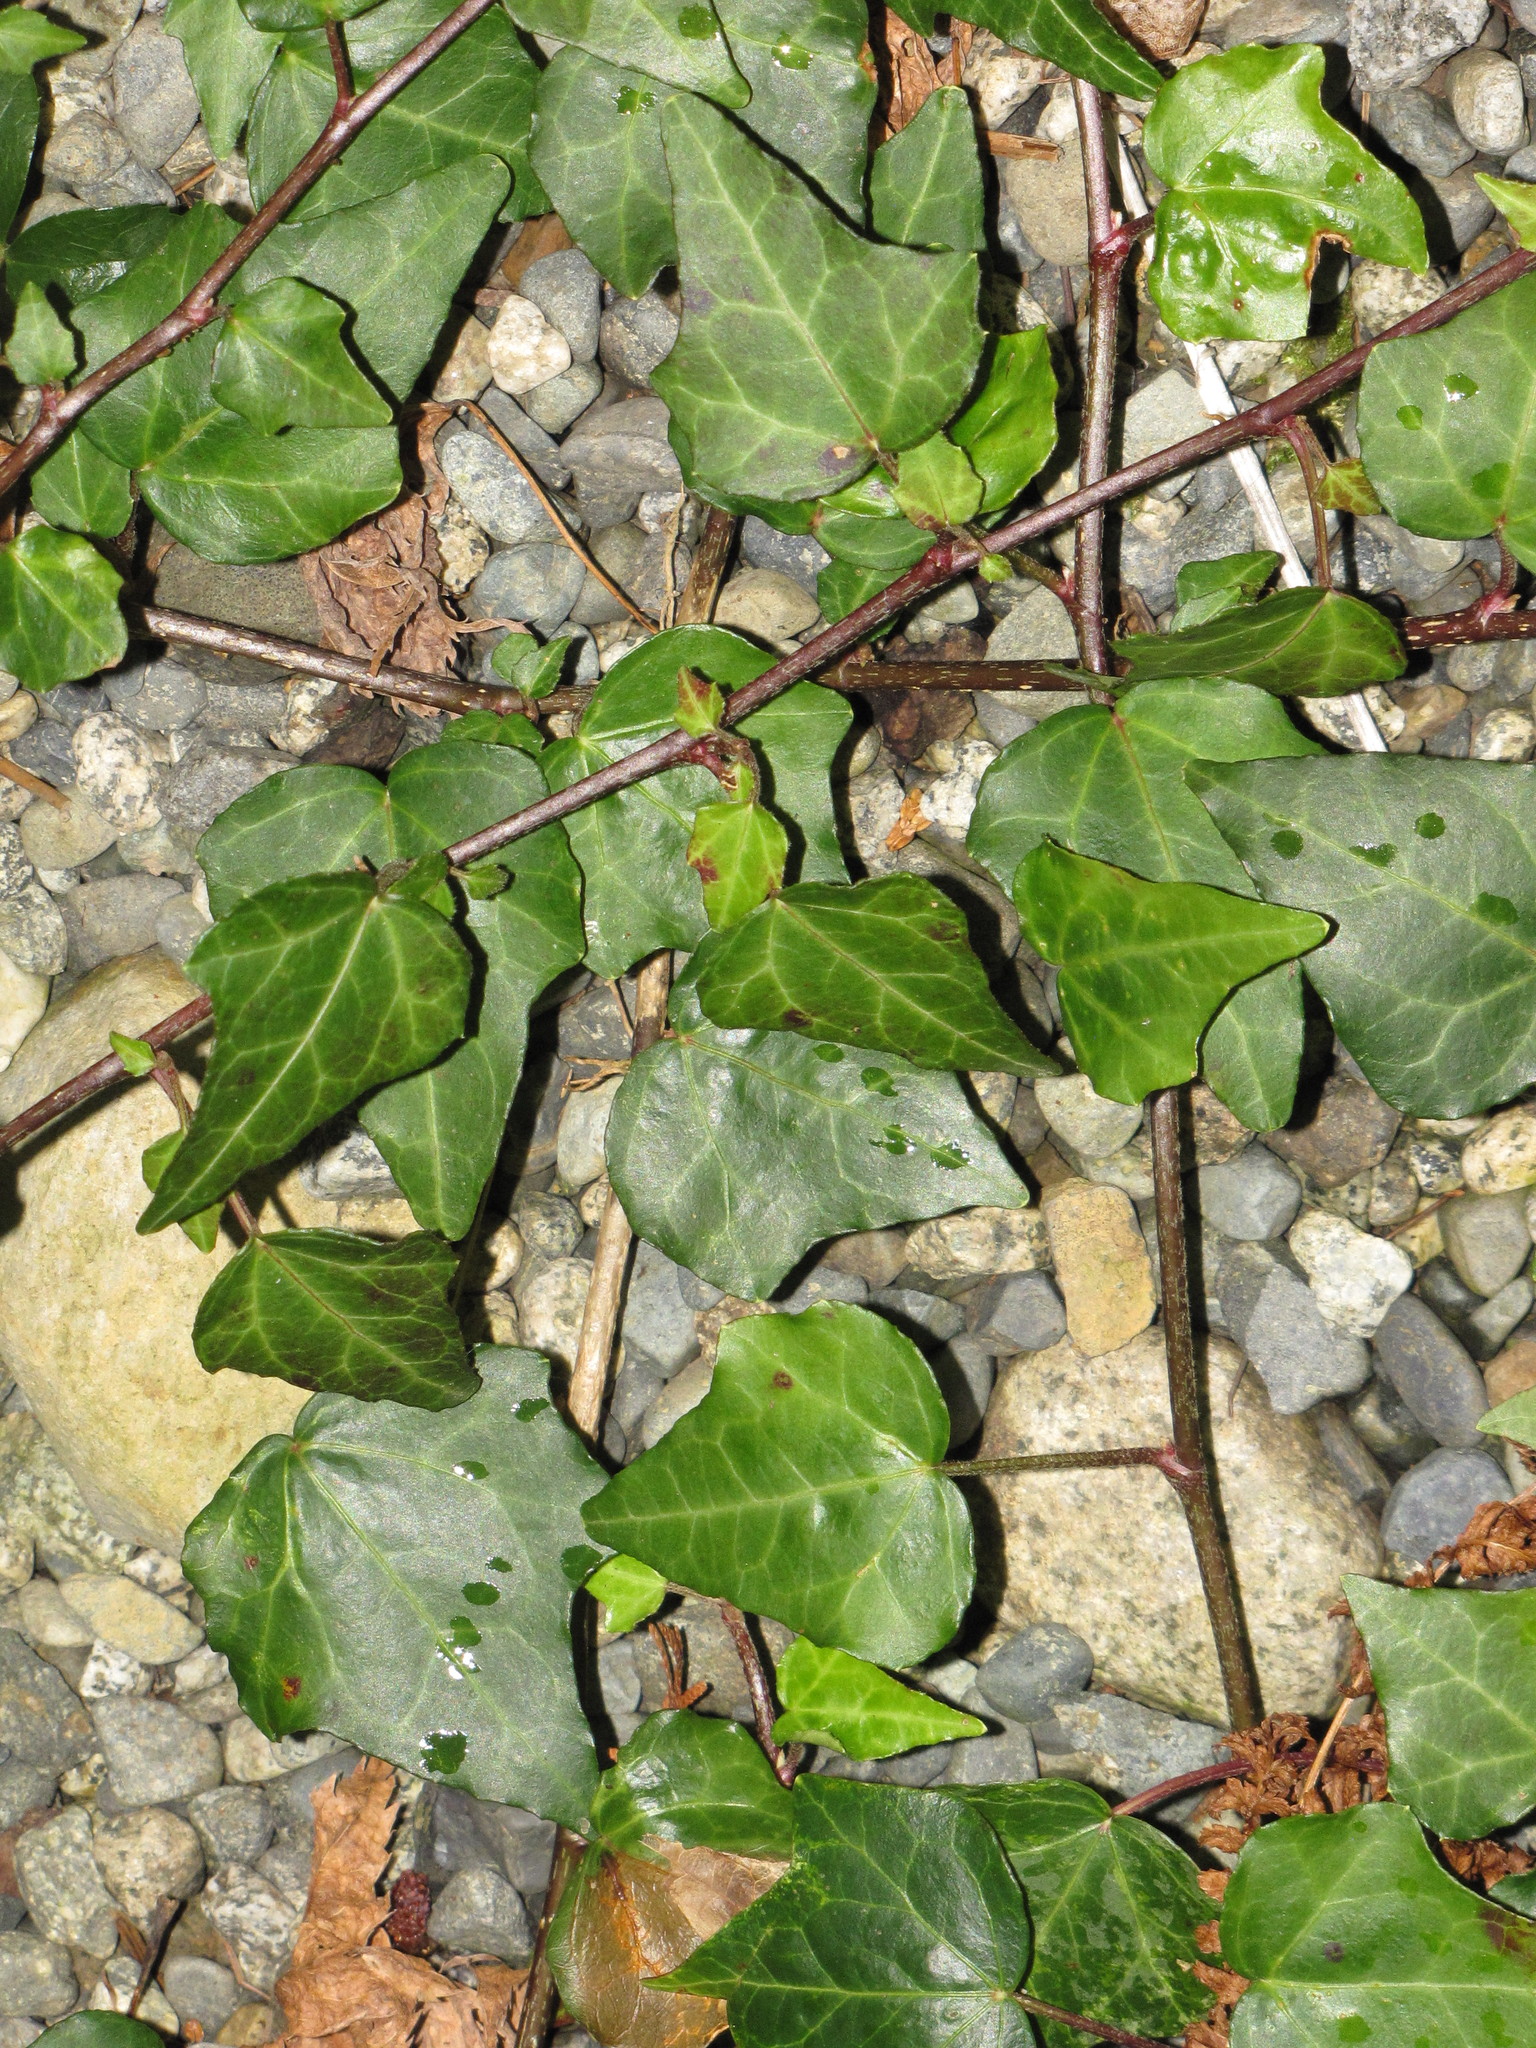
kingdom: Plantae
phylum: Tracheophyta
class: Magnoliopsida
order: Apiales
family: Araliaceae
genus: Hedera
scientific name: Hedera helix
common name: Ivy
